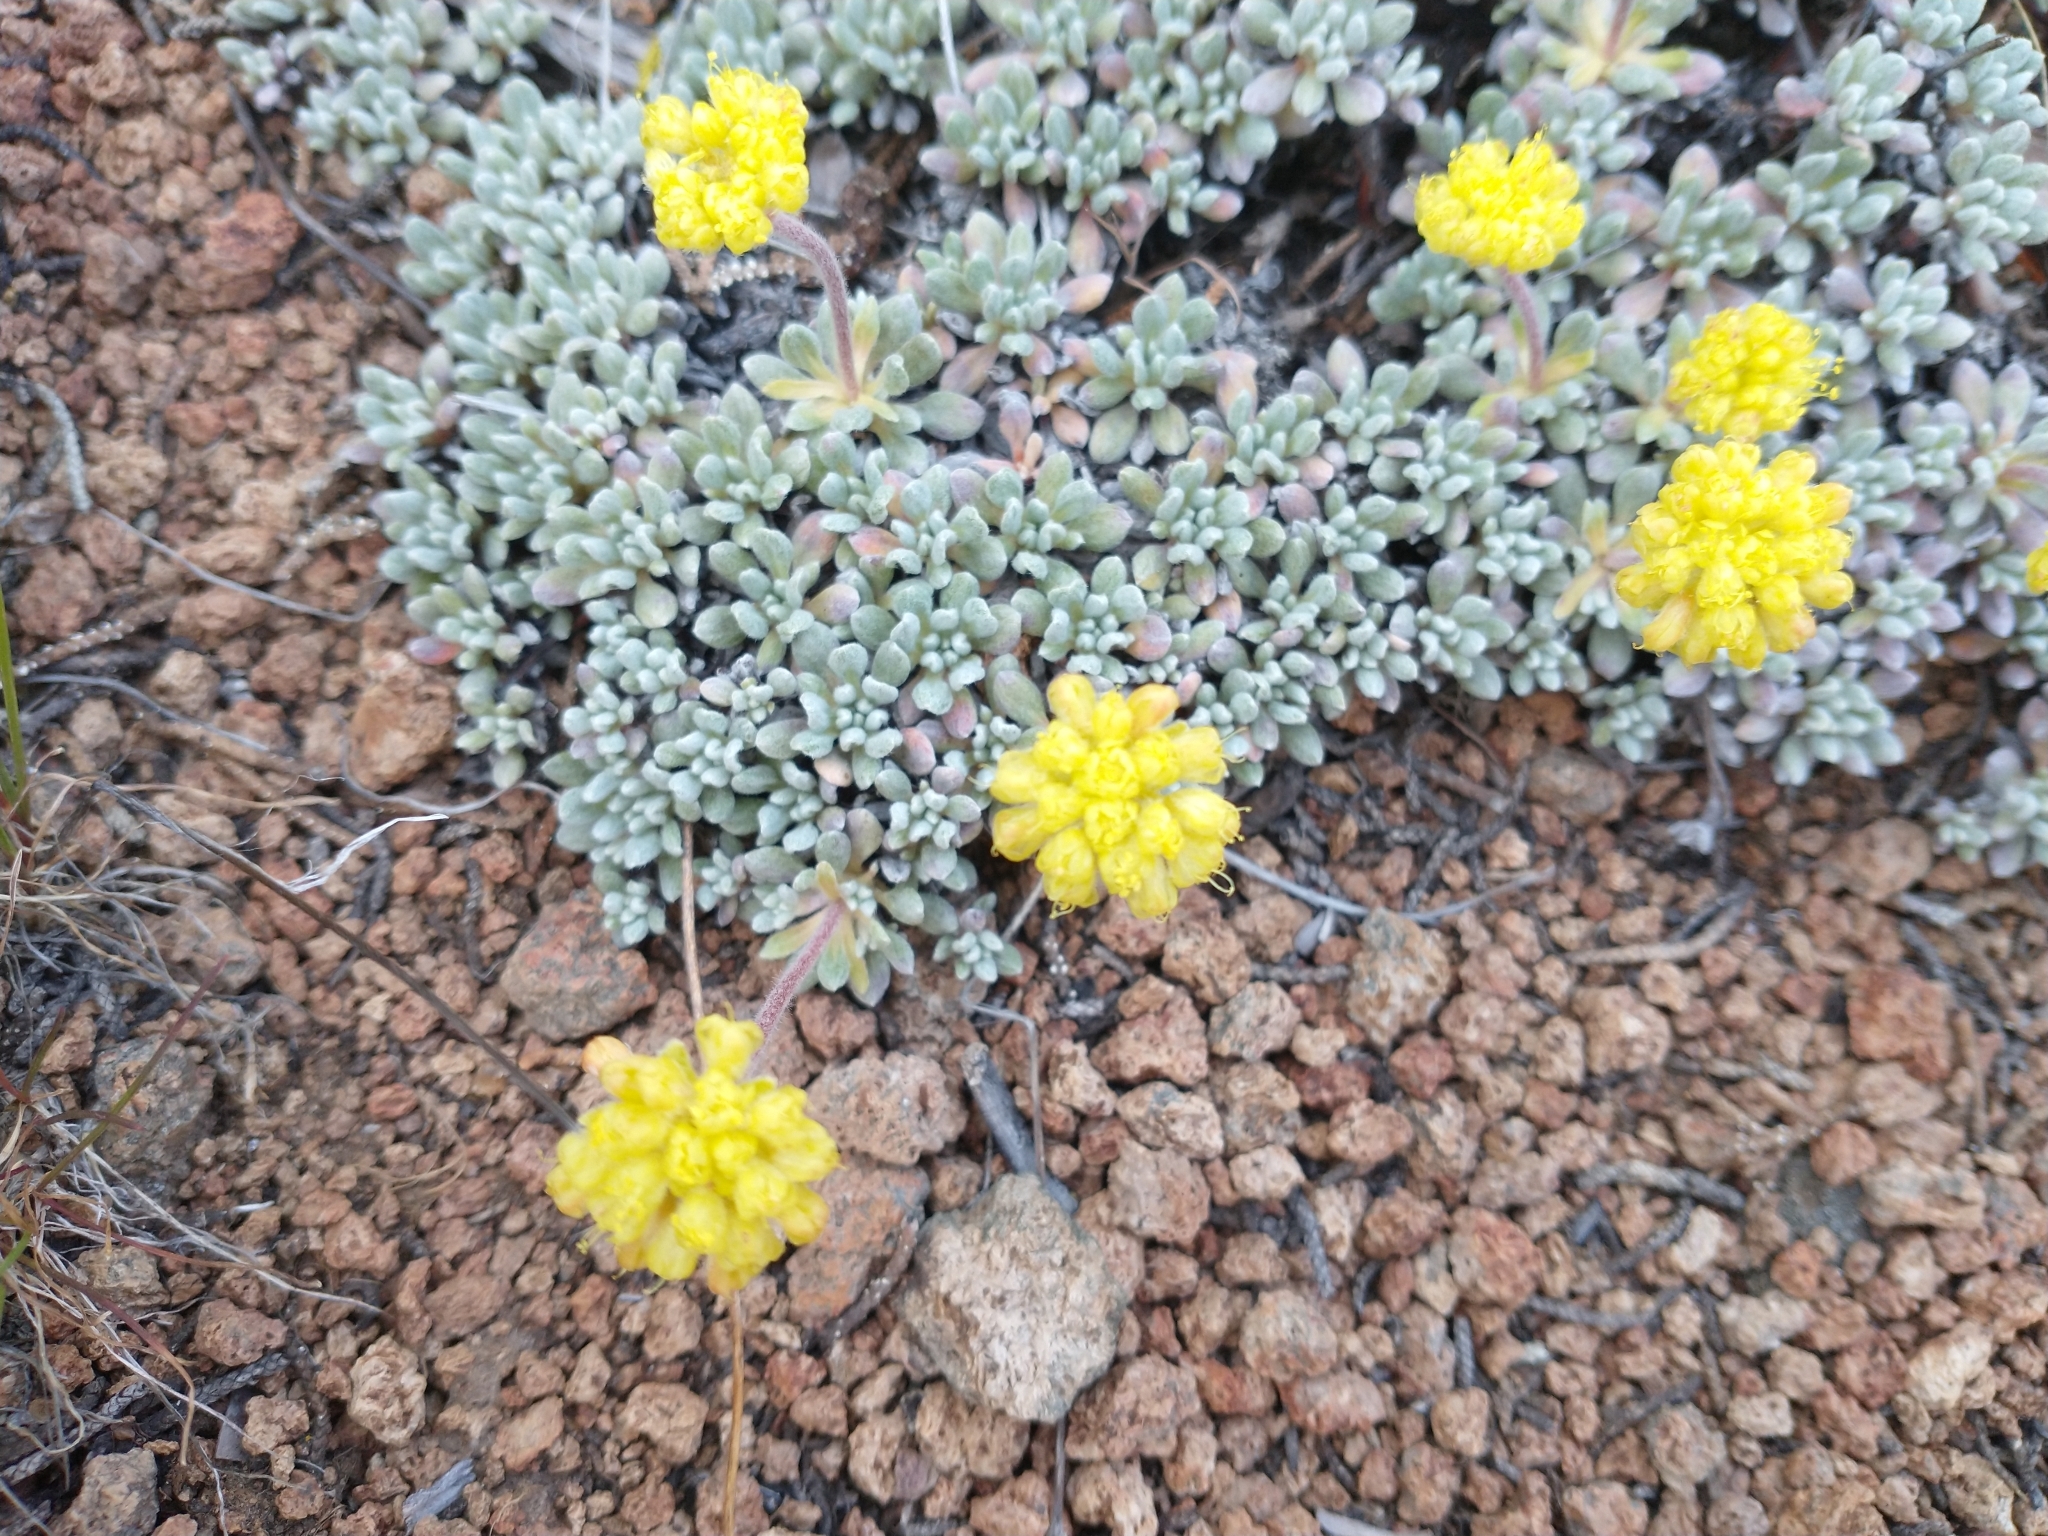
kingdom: Plantae
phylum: Tracheophyta
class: Magnoliopsida
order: Caryophyllales
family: Polygonaceae
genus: Eriogonum
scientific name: Eriogonum caespitosum
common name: Matted wild buckwheat
